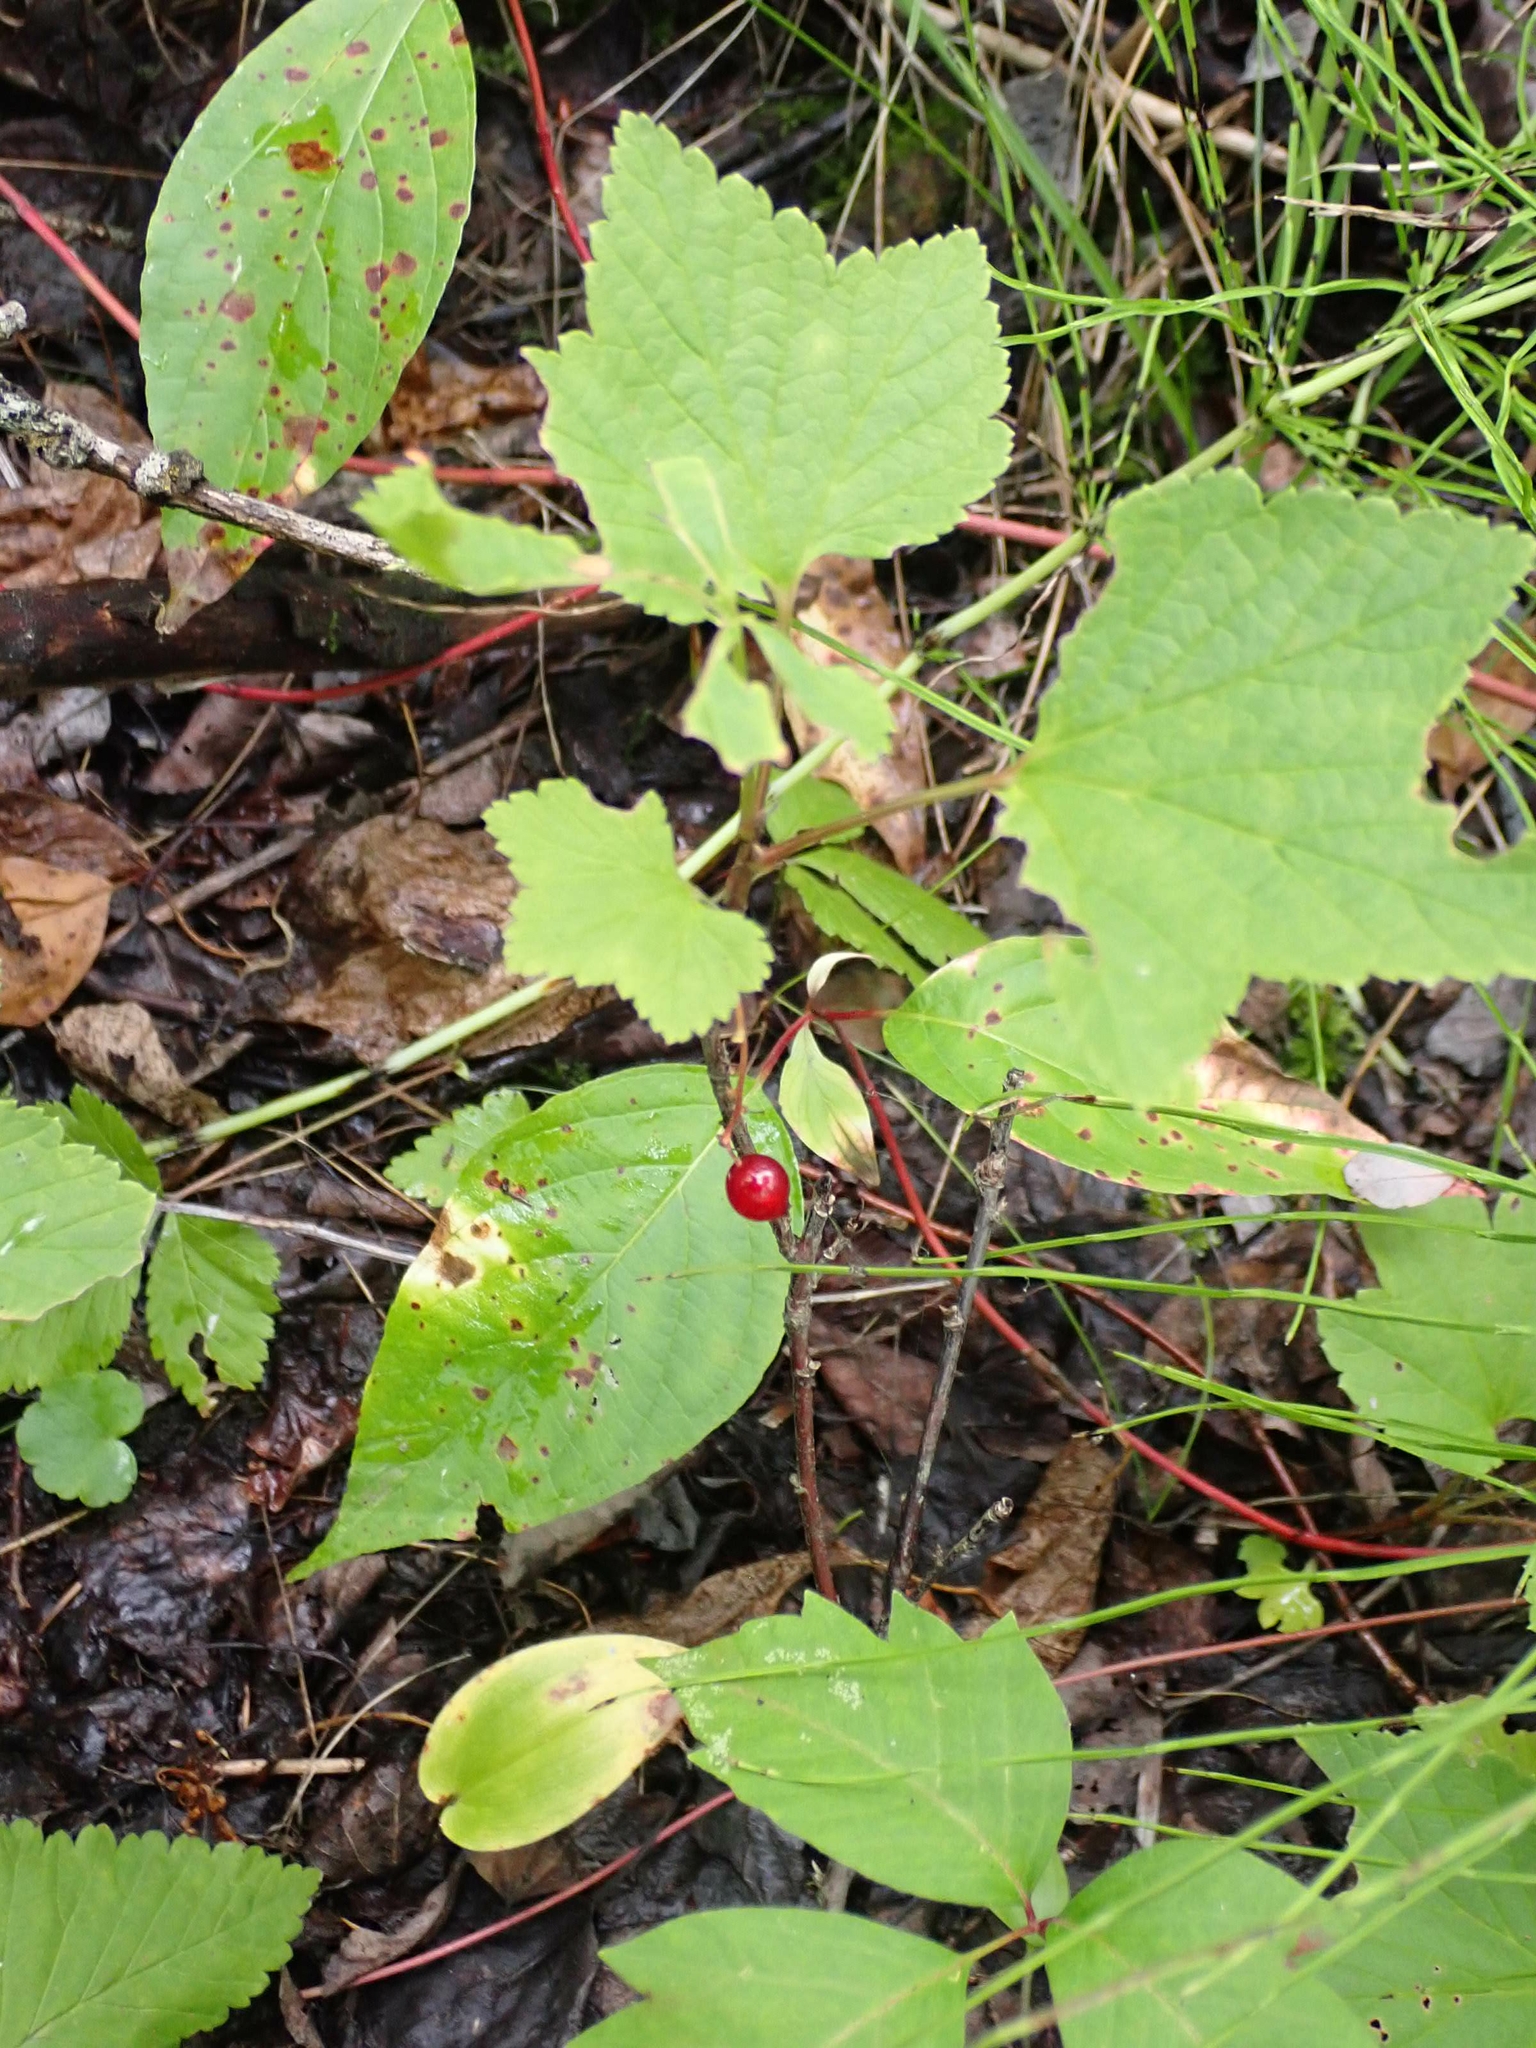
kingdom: Plantae
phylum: Tracheophyta
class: Magnoliopsida
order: Saxifragales
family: Grossulariaceae
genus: Ribes
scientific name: Ribes triste
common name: Swamp red currant
